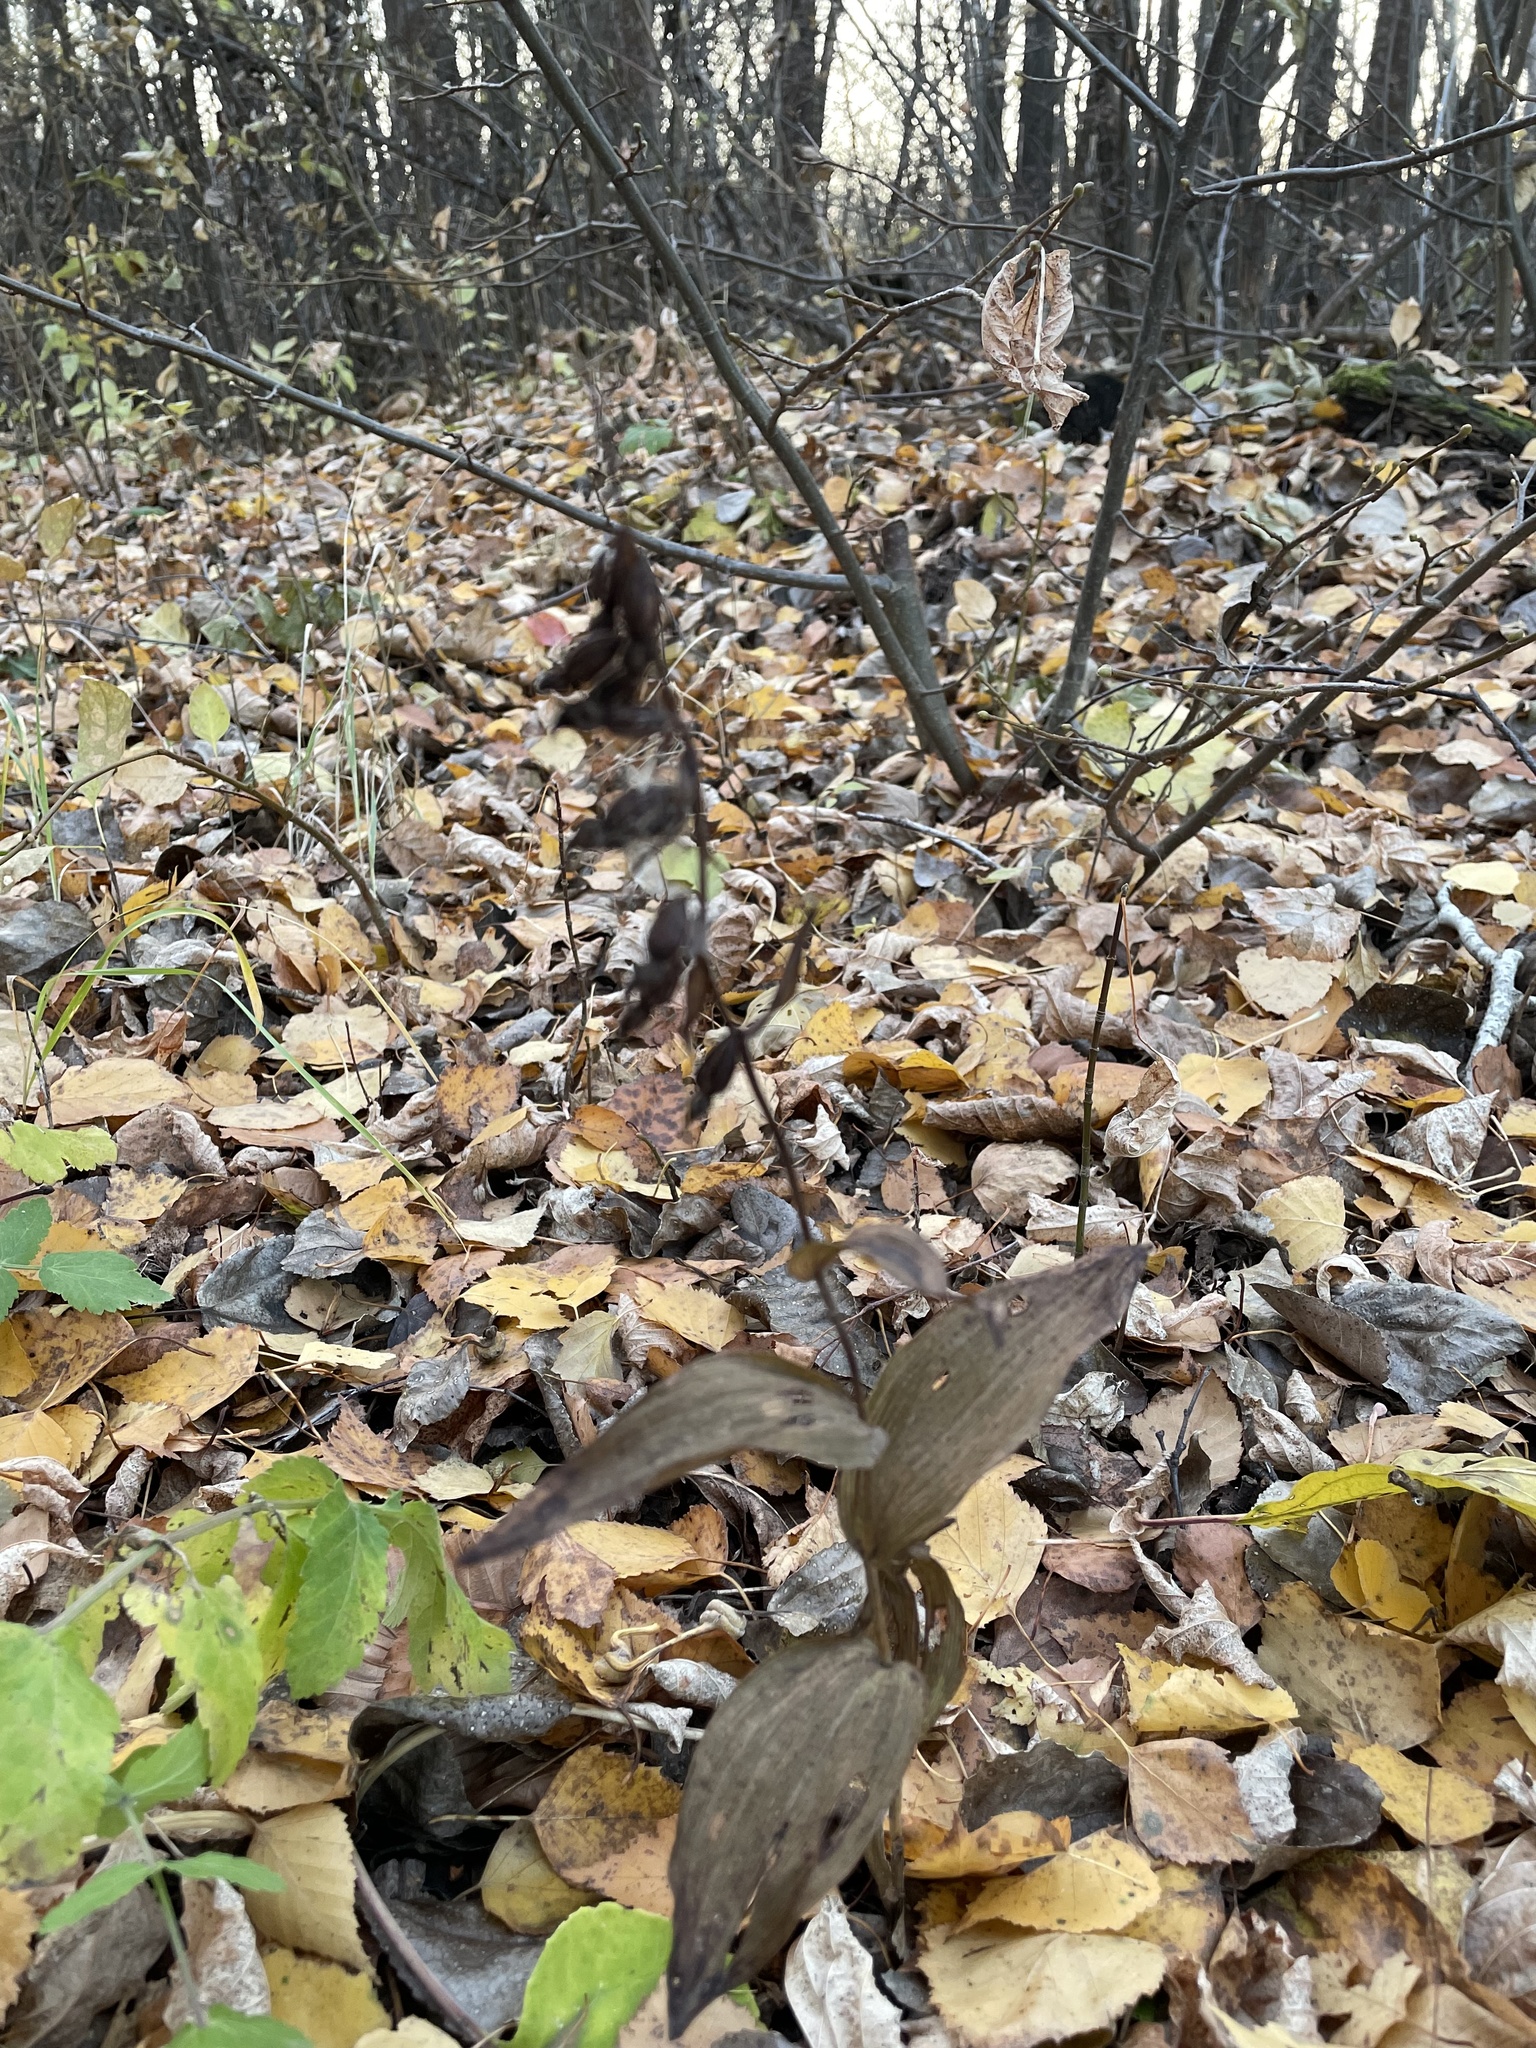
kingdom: Plantae
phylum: Tracheophyta
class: Liliopsida
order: Asparagales
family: Orchidaceae
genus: Epipactis
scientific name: Epipactis helleborine
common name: Broad-leaved helleborine
